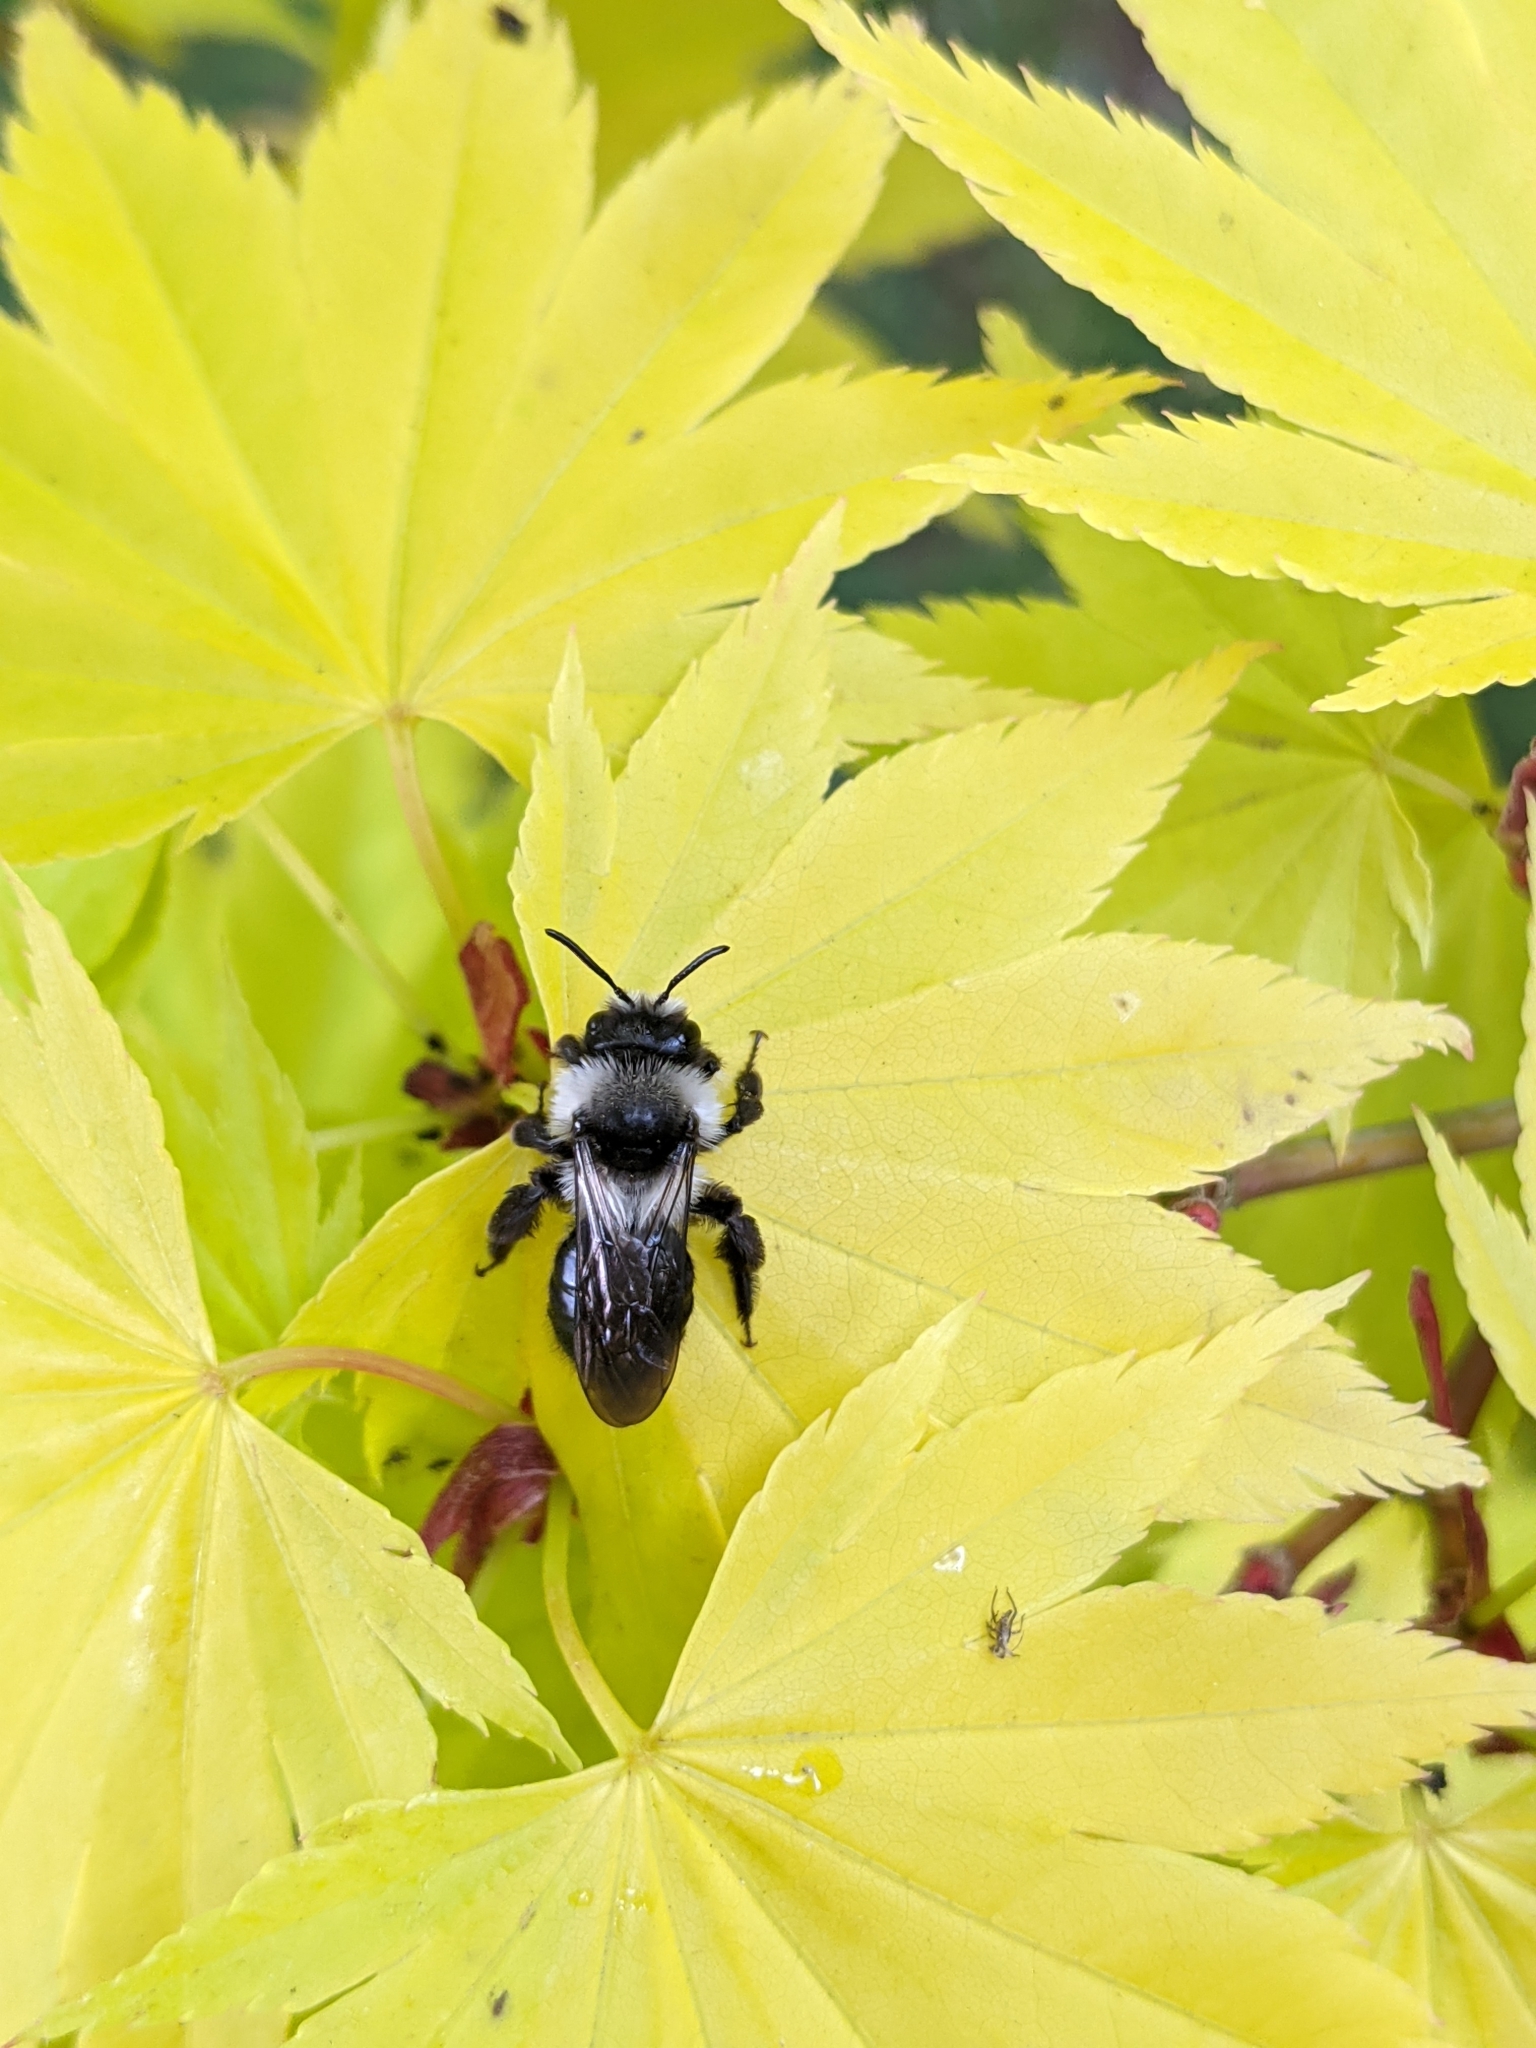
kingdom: Animalia
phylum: Arthropoda
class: Insecta
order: Hymenoptera
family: Andrenidae
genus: Andrena
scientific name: Andrena cineraria
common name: Ashy mining bee
